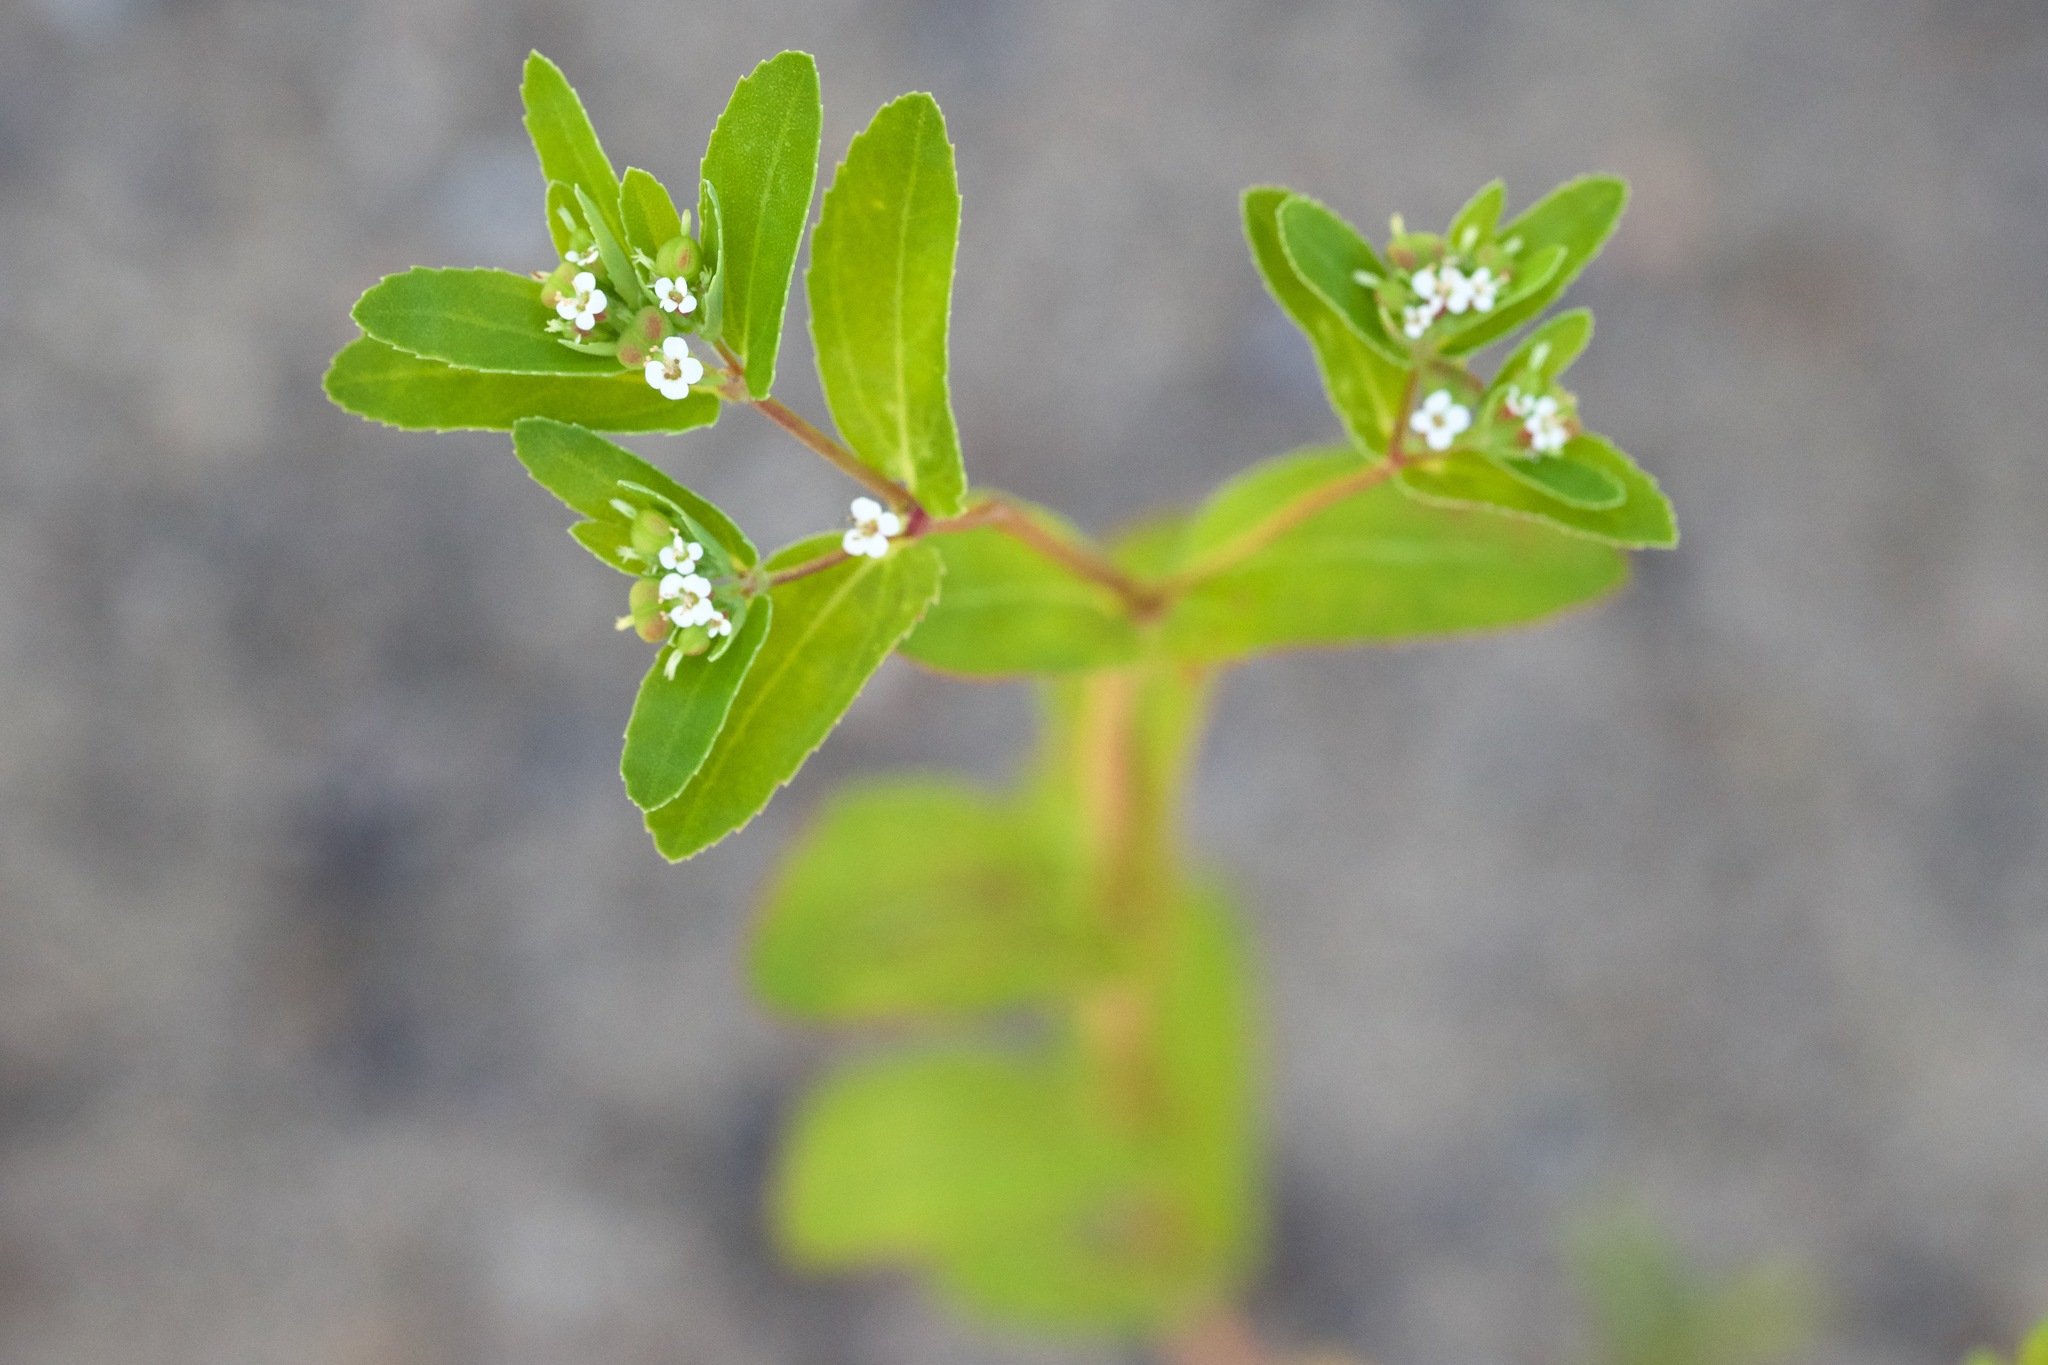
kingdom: Plantae
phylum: Tracheophyta
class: Magnoliopsida
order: Malpighiales
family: Euphorbiaceae
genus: Euphorbia
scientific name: Euphorbia nutans
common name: Eyebane
